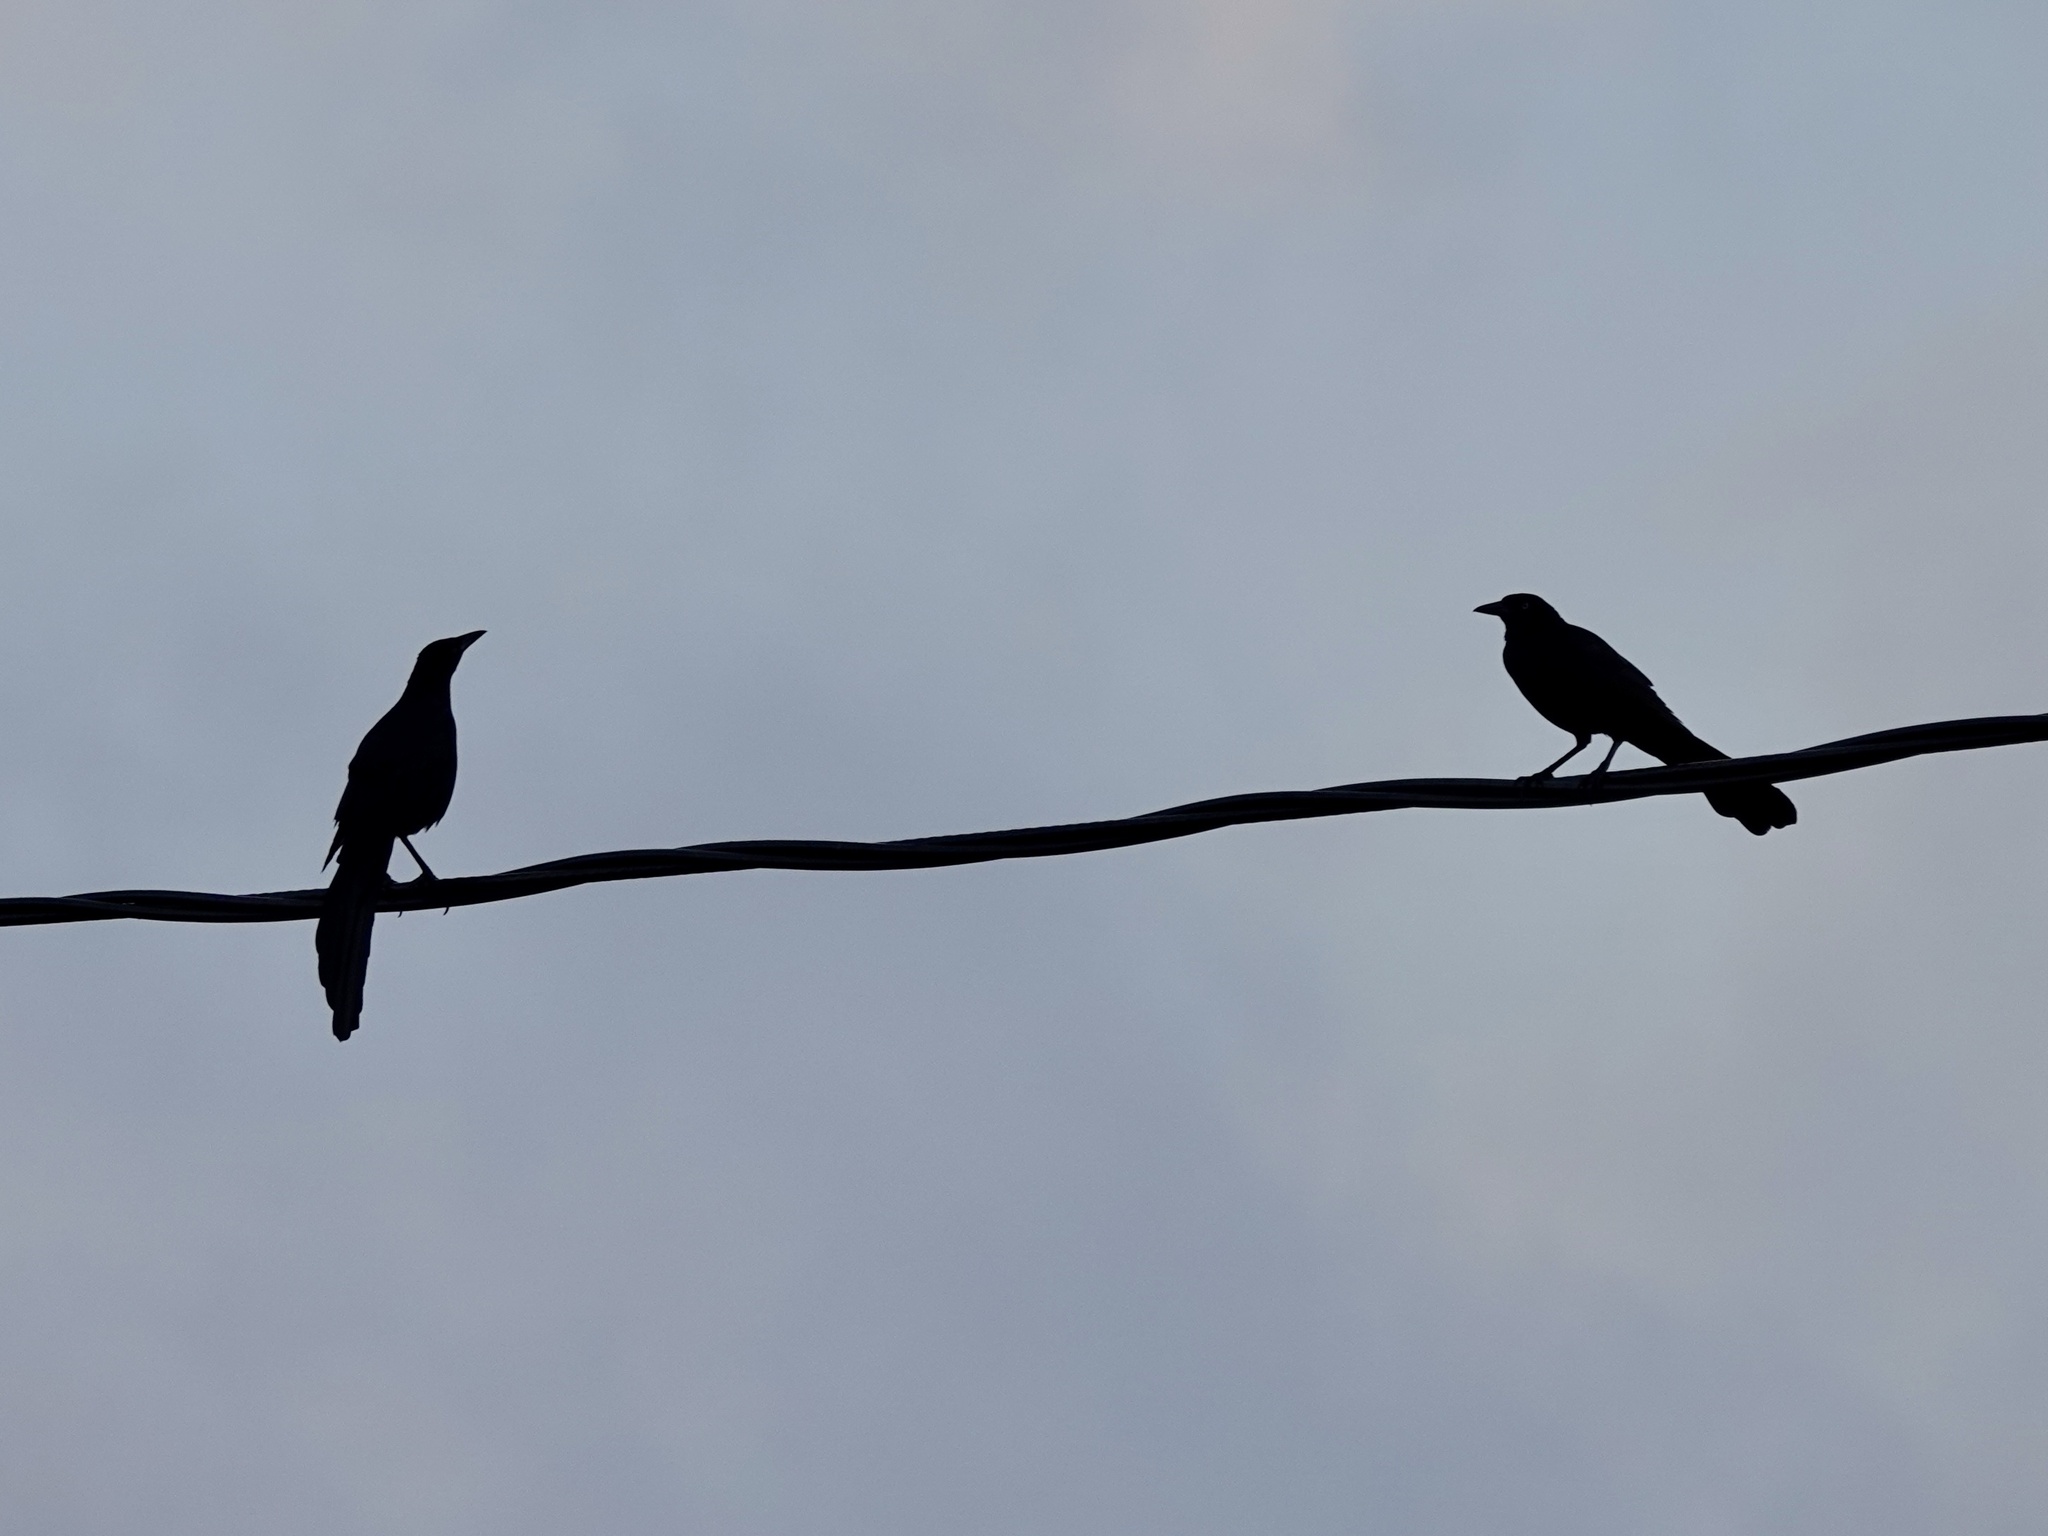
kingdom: Animalia
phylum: Chordata
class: Aves
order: Passeriformes
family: Icteridae
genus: Quiscalus
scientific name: Quiscalus mexicanus
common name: Great-tailed grackle
